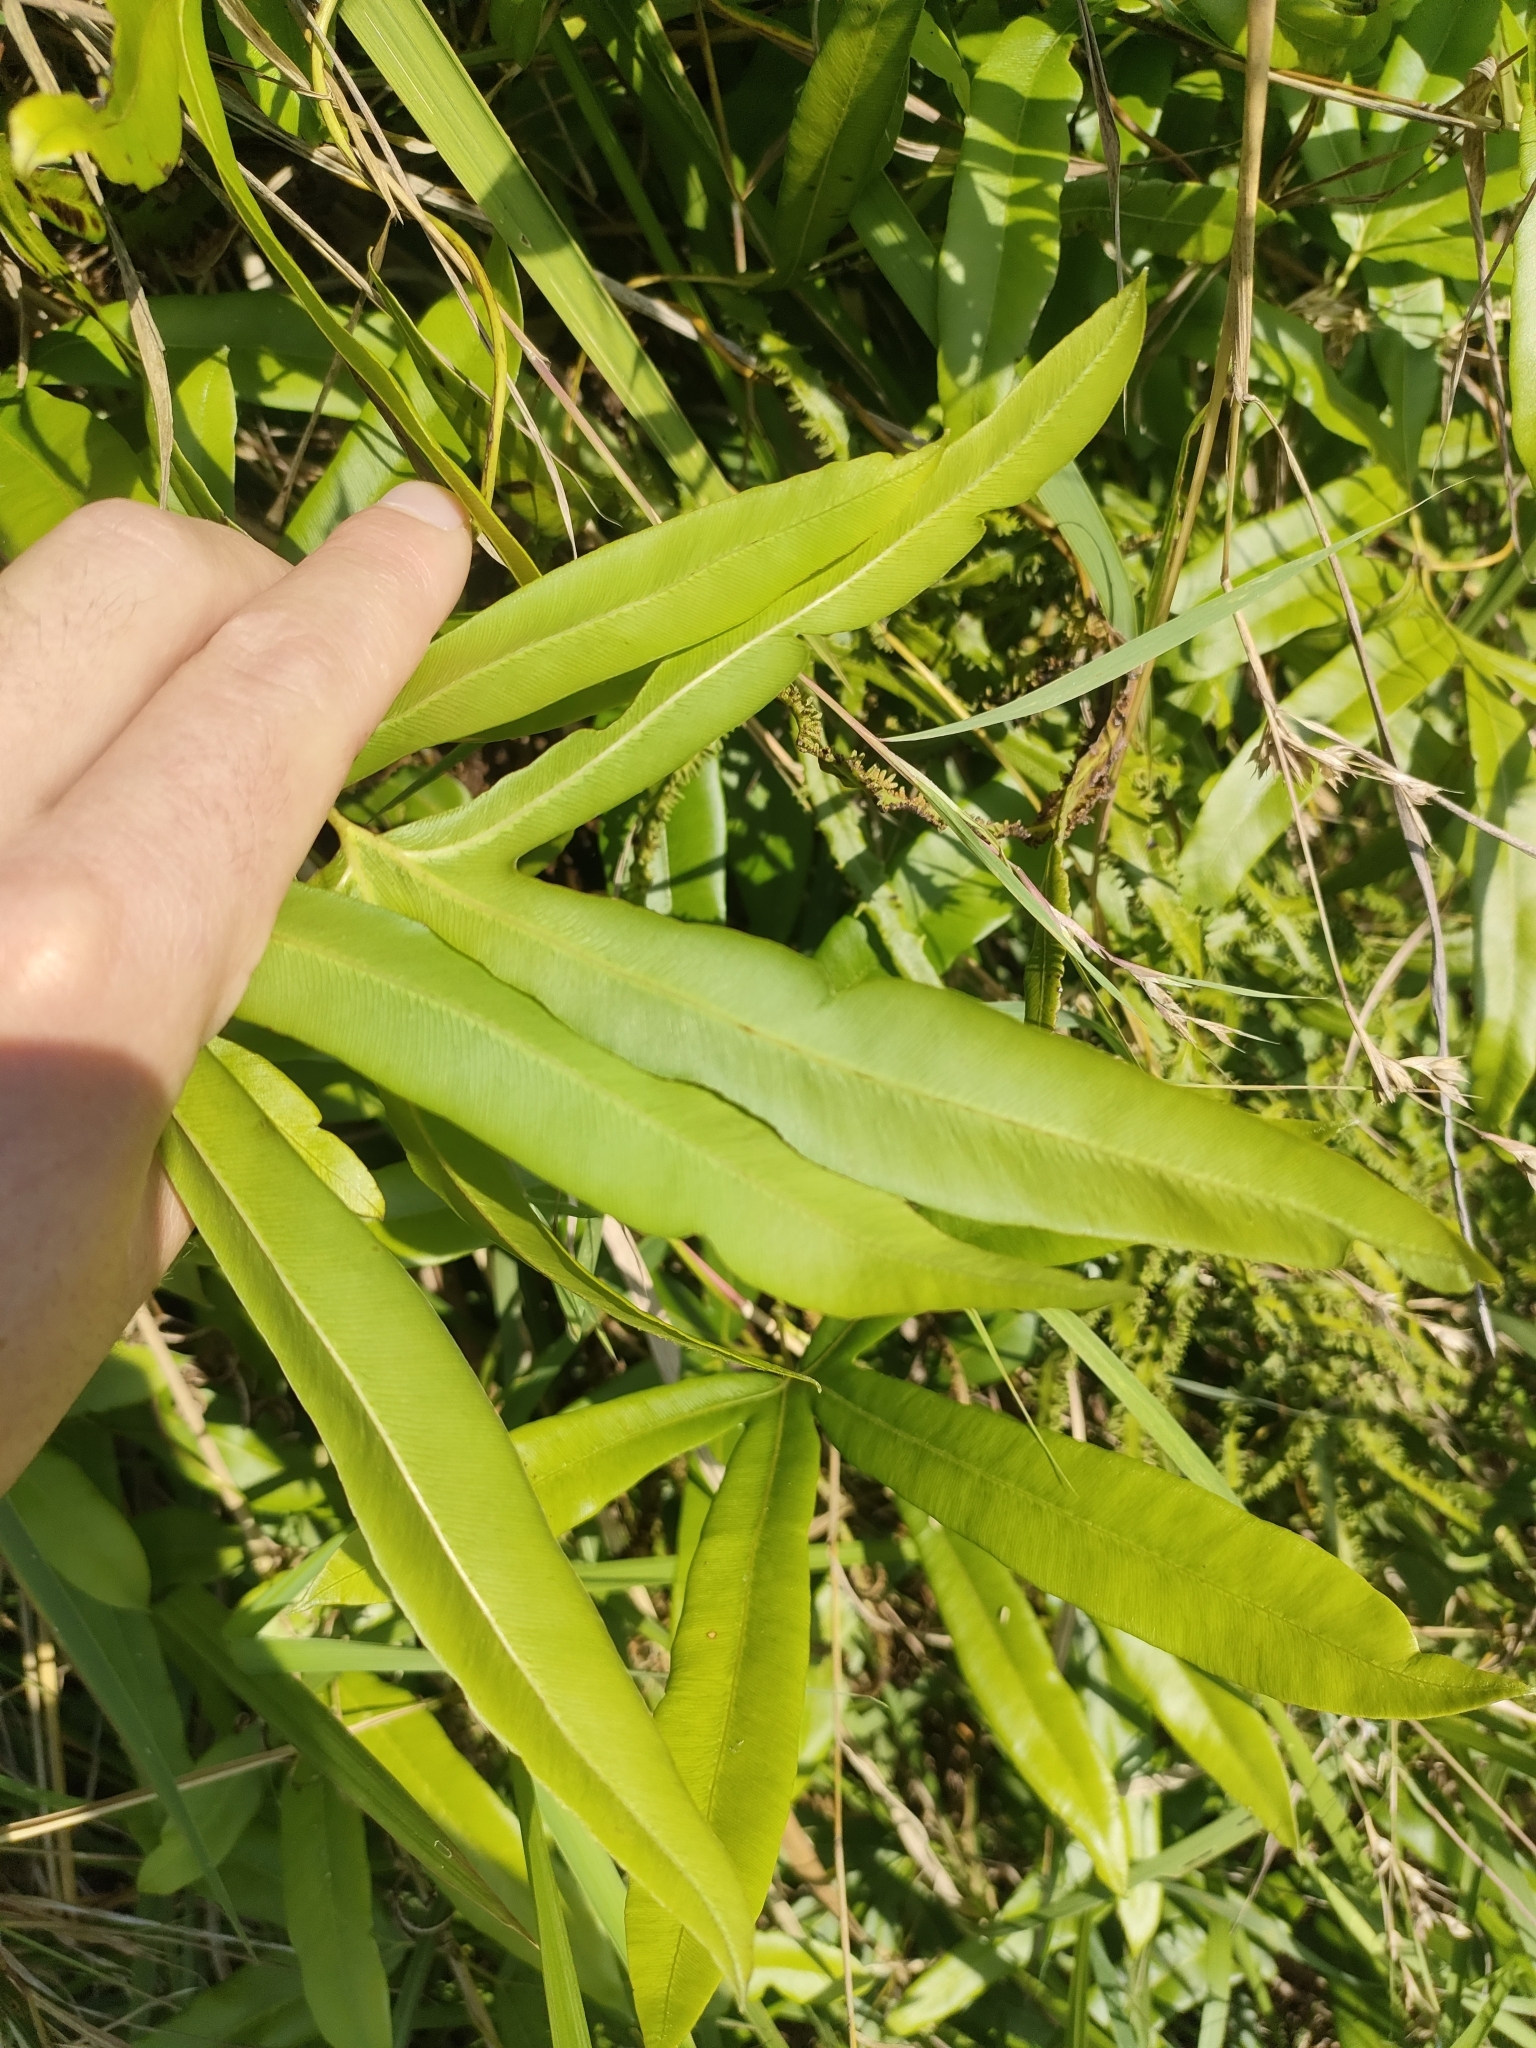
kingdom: Plantae
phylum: Tracheophyta
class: Polypodiopsida
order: Schizaeales
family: Lygodiaceae
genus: Lygodium
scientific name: Lygodium circinnatum
